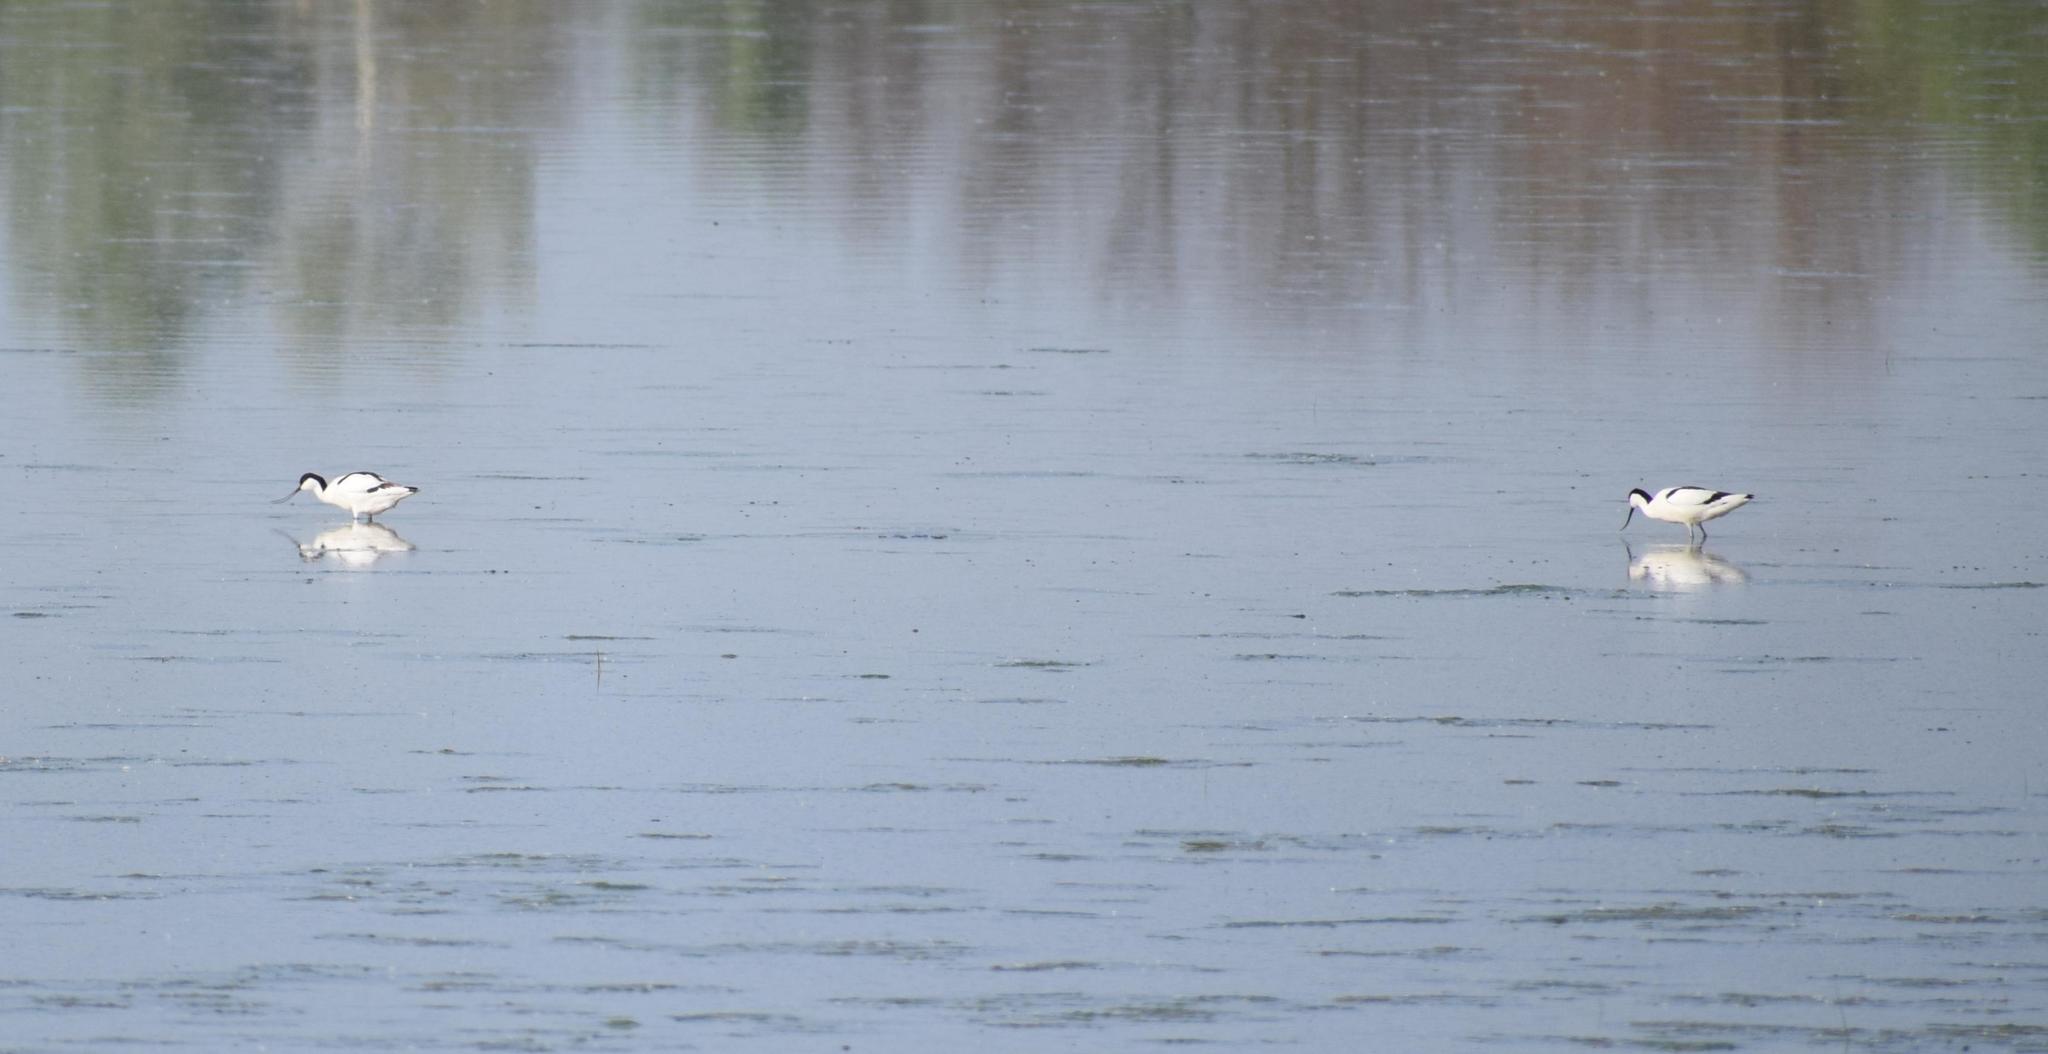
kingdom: Animalia
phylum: Chordata
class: Aves
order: Charadriiformes
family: Recurvirostridae
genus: Recurvirostra
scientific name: Recurvirostra avosetta
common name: Pied avocet
